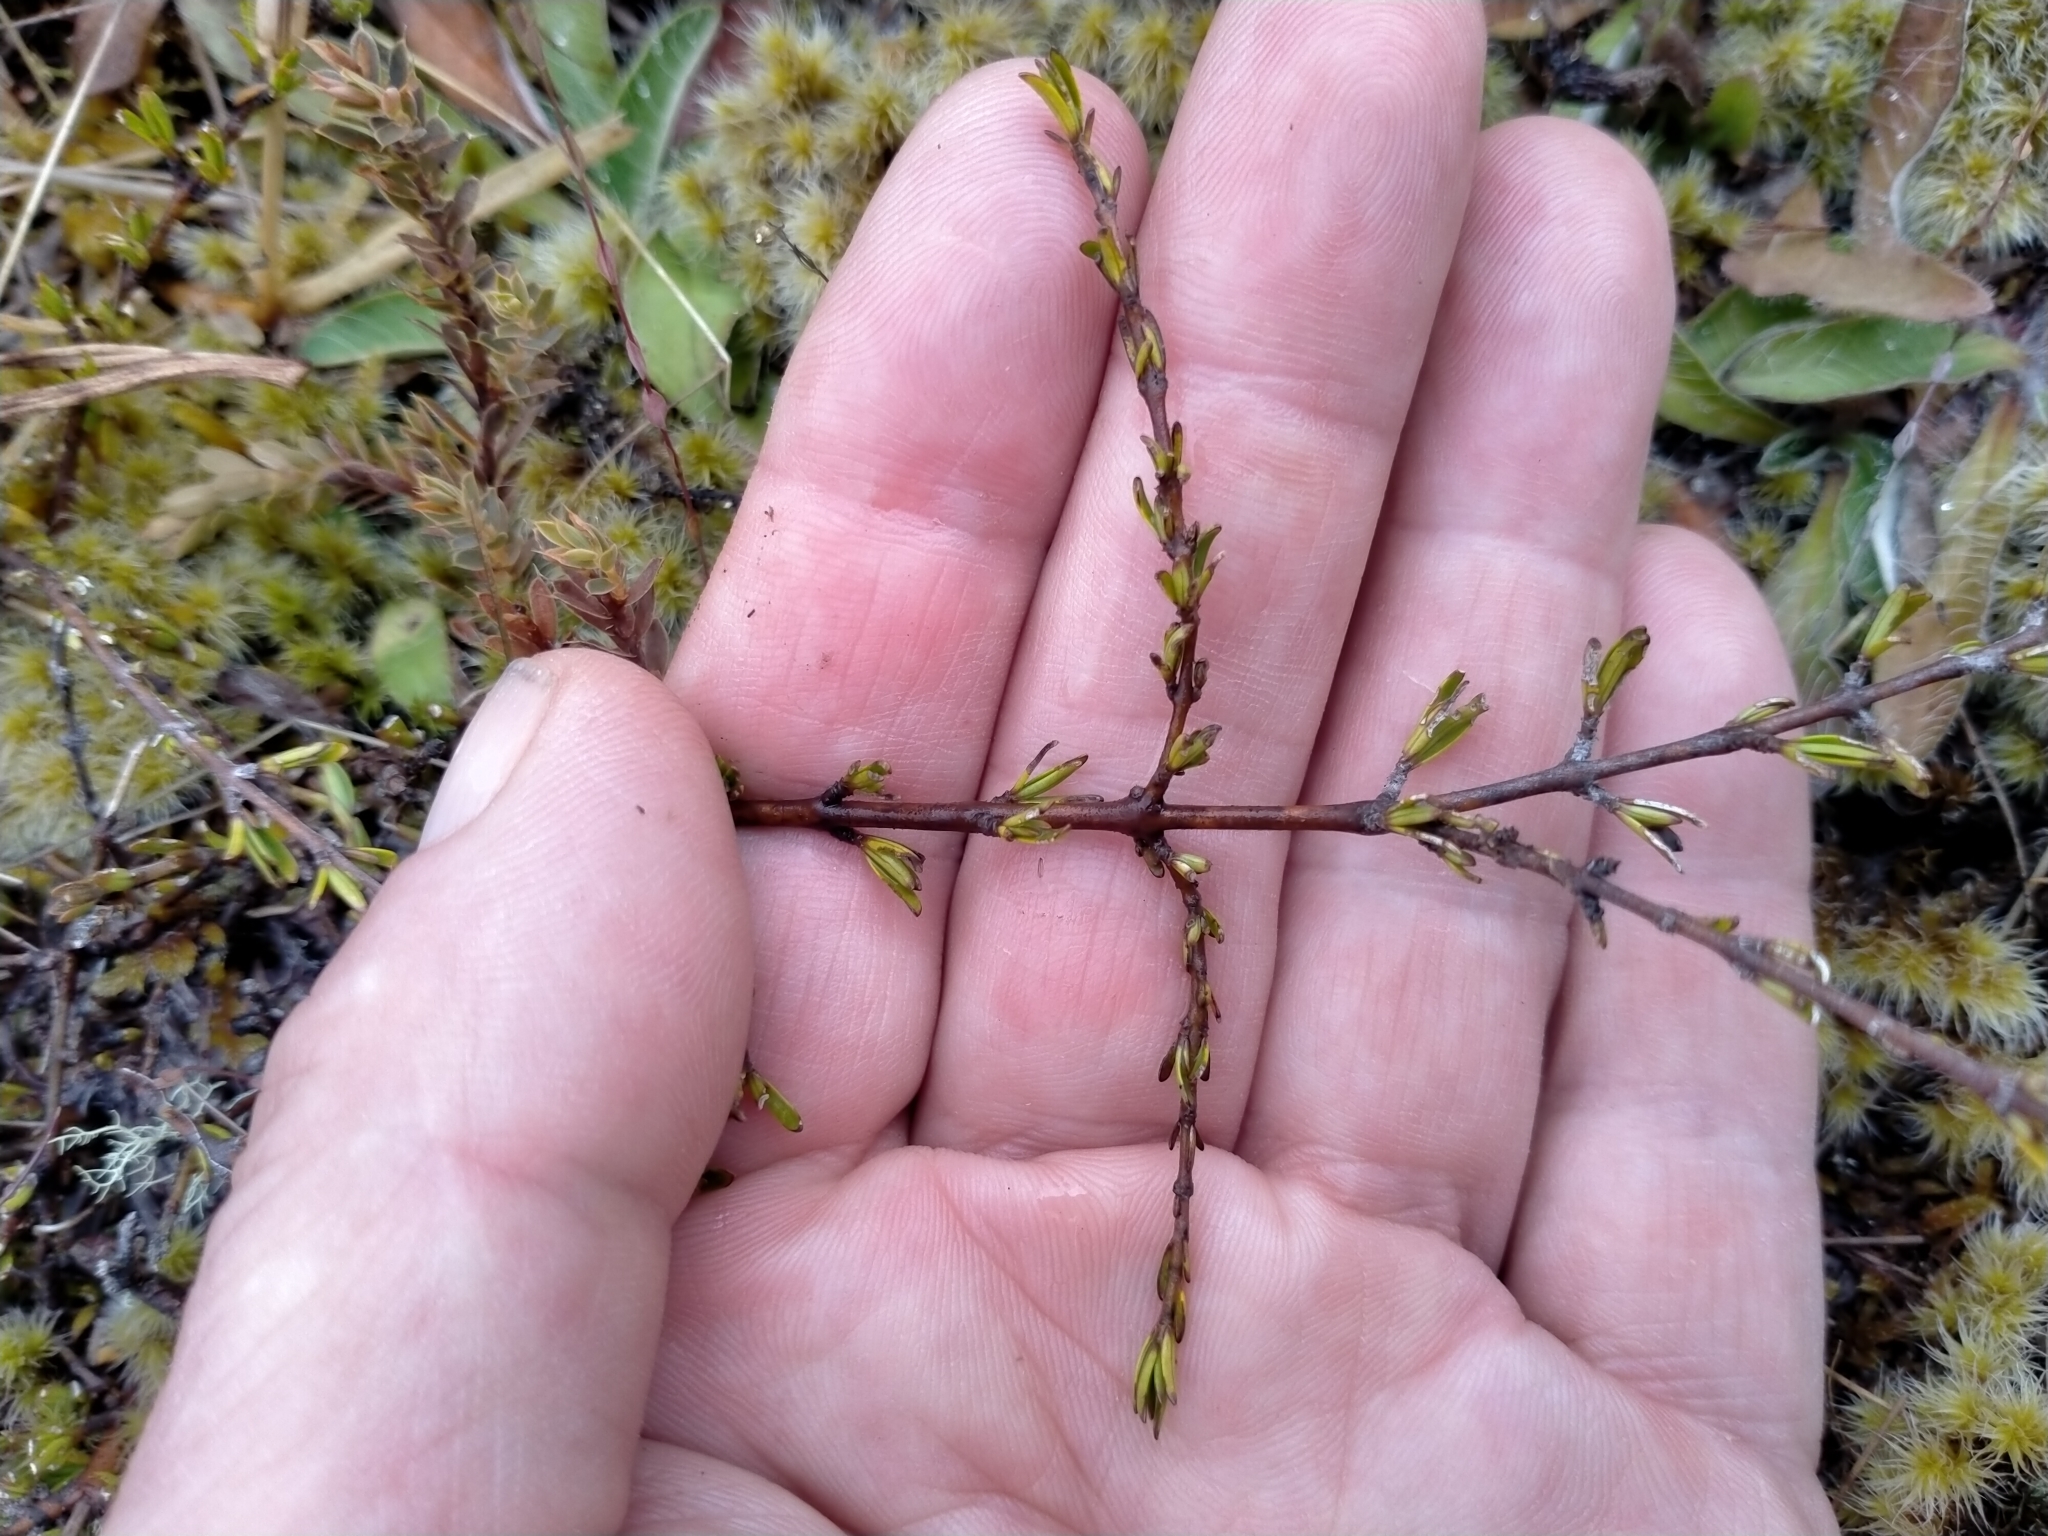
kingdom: Plantae
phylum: Tracheophyta
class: Magnoliopsida
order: Gentianales
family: Rubiaceae
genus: Coprosma
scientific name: Coprosma acerosa
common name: Sand coprosma
